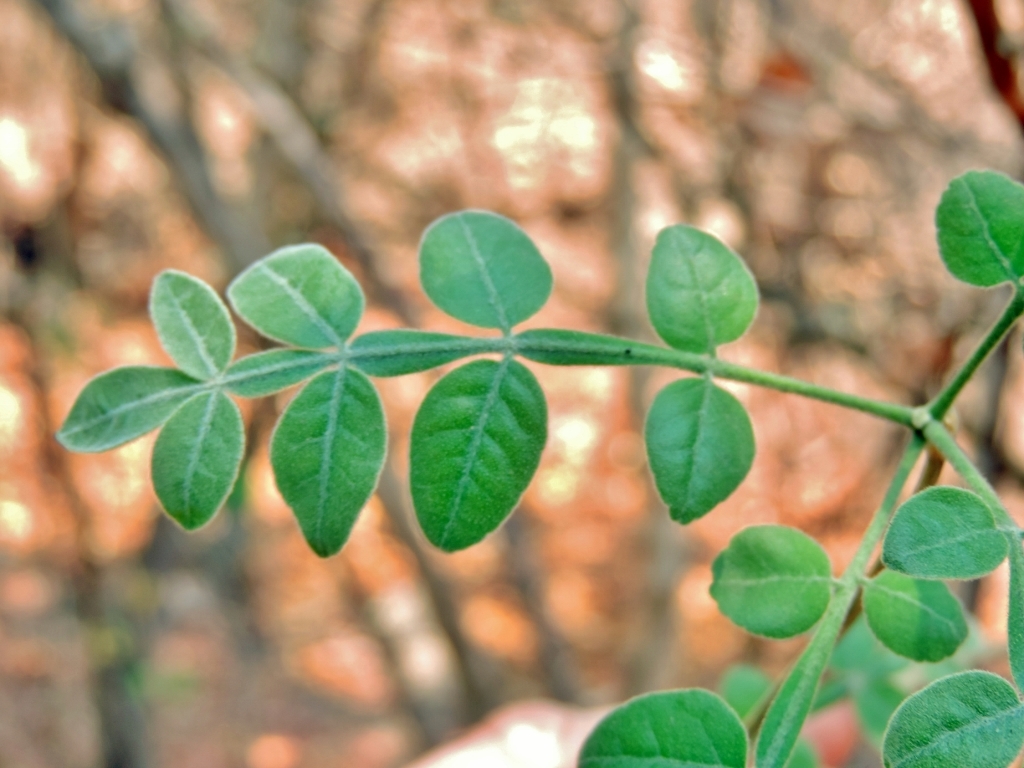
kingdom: Plantae
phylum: Tracheophyta
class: Magnoliopsida
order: Sapindales
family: Rutaceae
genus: Citropsis
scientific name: Citropsis daweana
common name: Mozambique-cherry-orange
